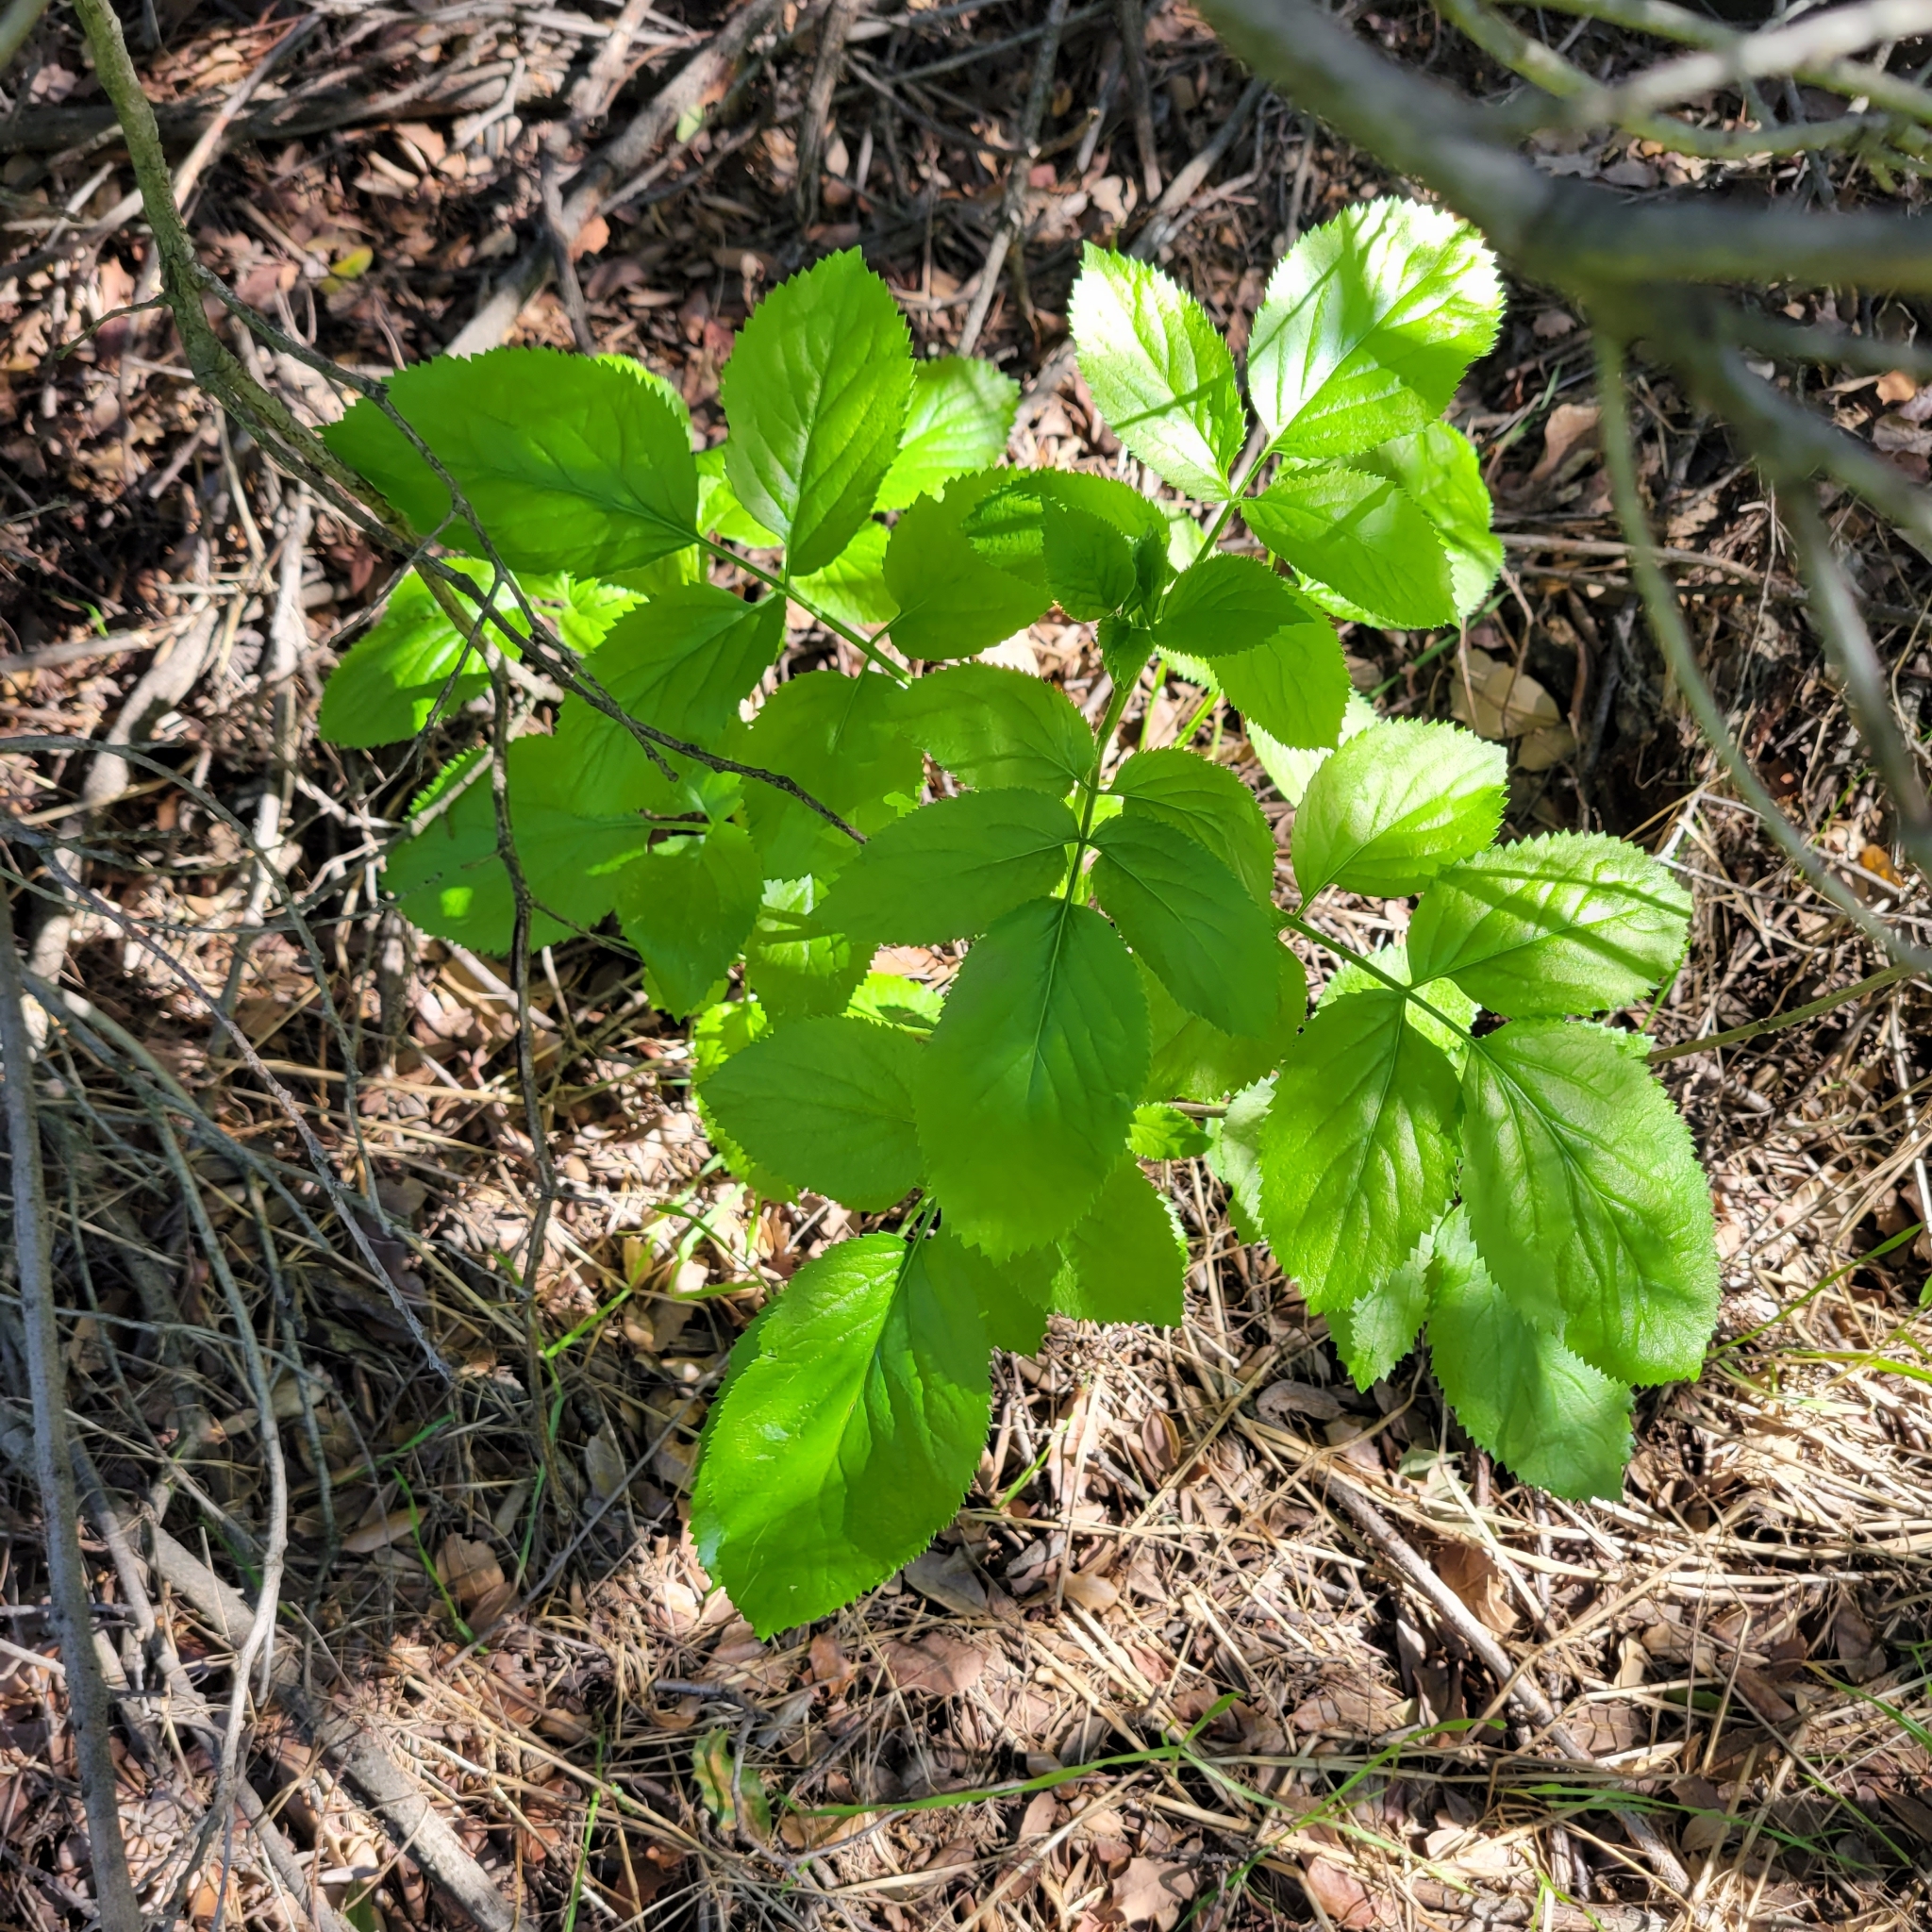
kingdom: Plantae
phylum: Tracheophyta
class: Magnoliopsida
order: Dipsacales
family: Viburnaceae
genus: Sambucus
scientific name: Sambucus cerulea
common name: Blue elder
